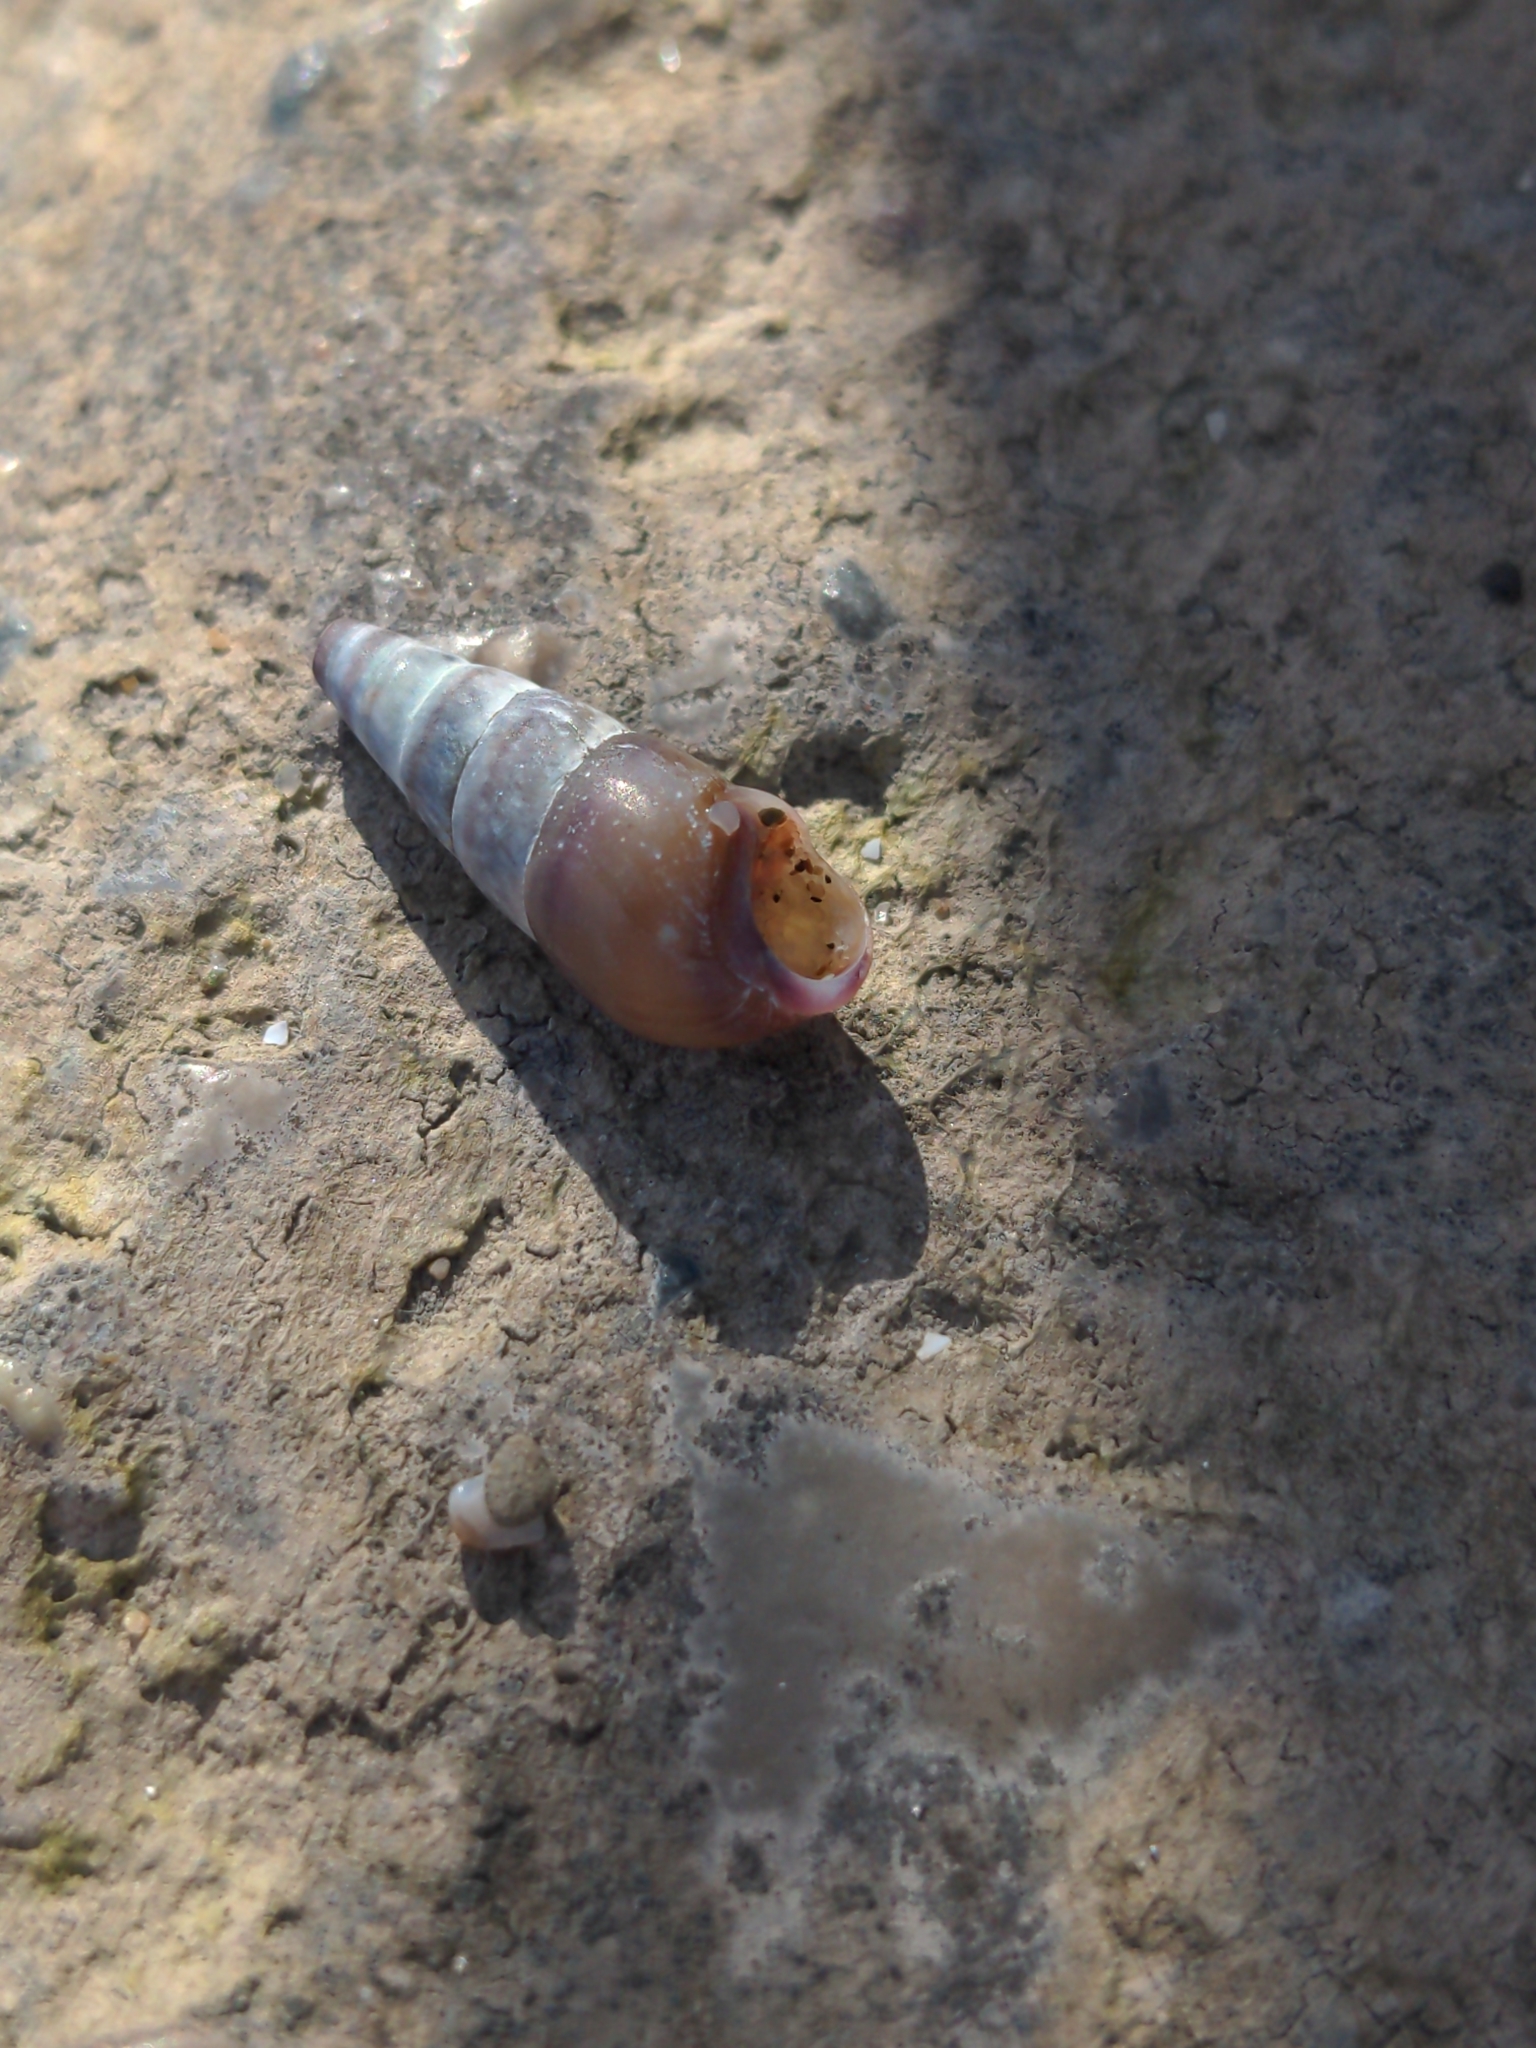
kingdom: Animalia
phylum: Mollusca
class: Gastropoda
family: Pleuroceridae
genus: Pleurocera
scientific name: Pleurocera acuta
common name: Sharp hornsnail
